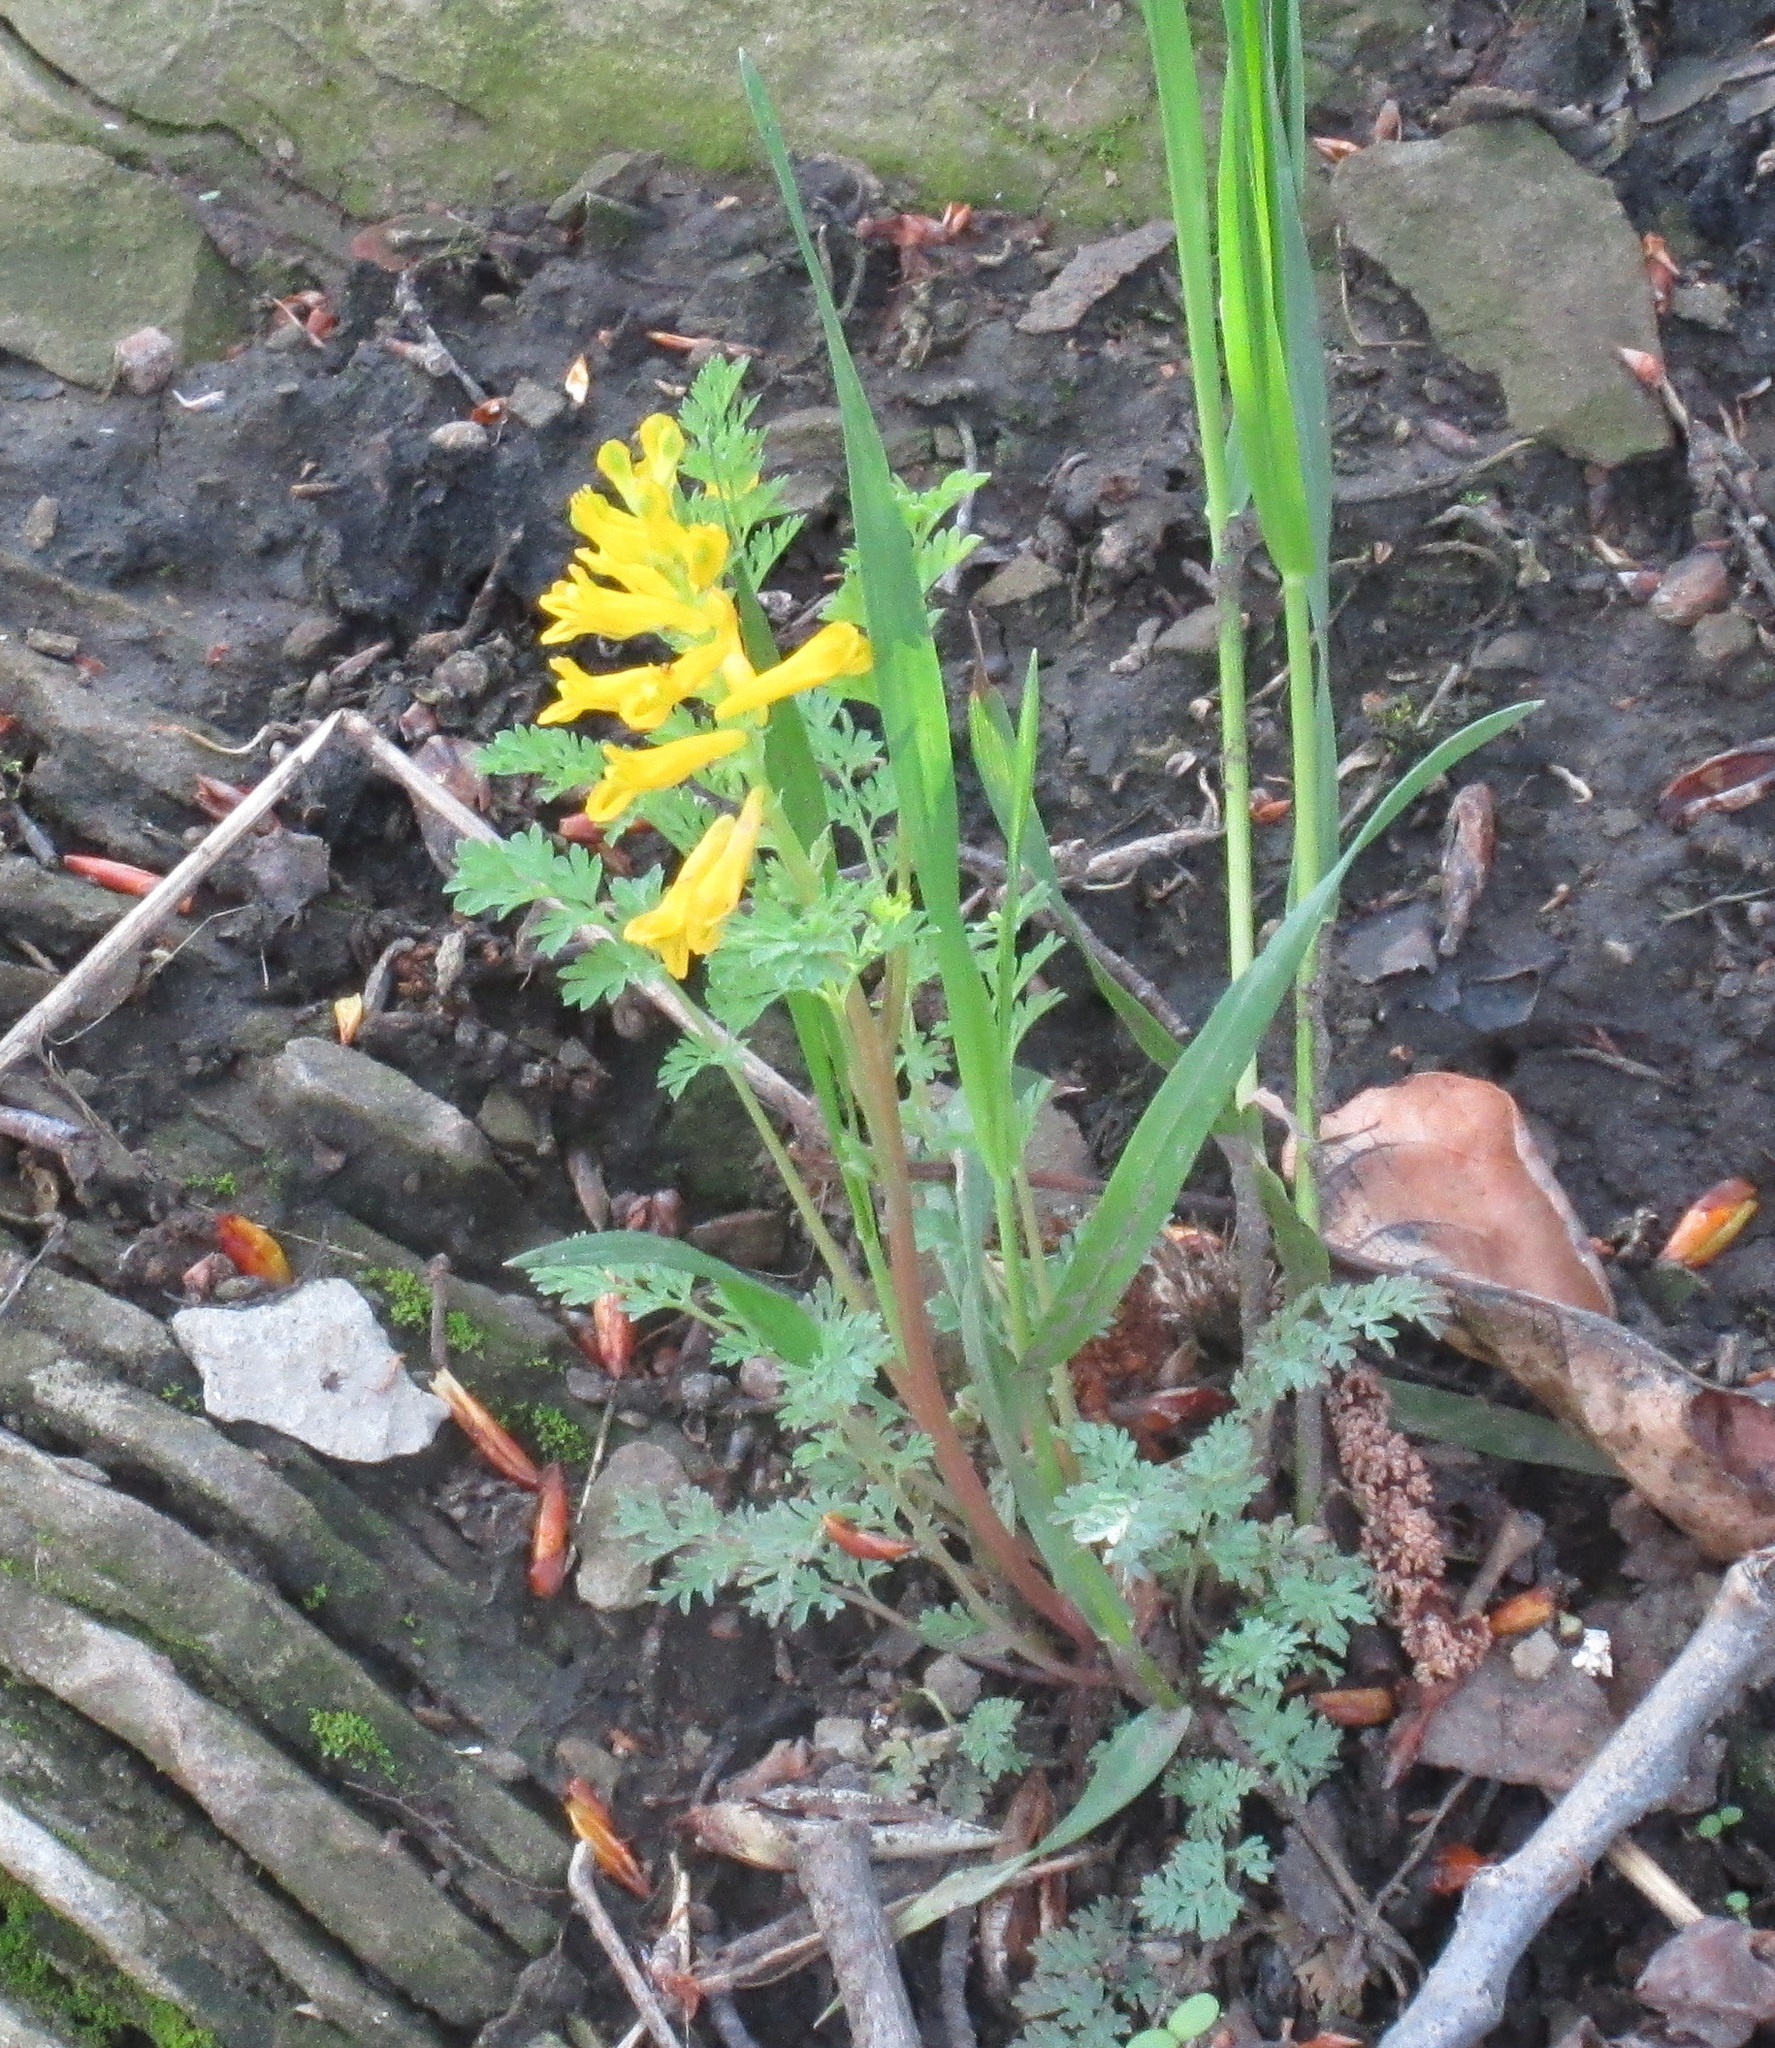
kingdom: Plantae
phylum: Tracheophyta
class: Magnoliopsida
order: Ranunculales
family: Papaveraceae
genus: Corydalis
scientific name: Corydalis aurea
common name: Golden corydalis
